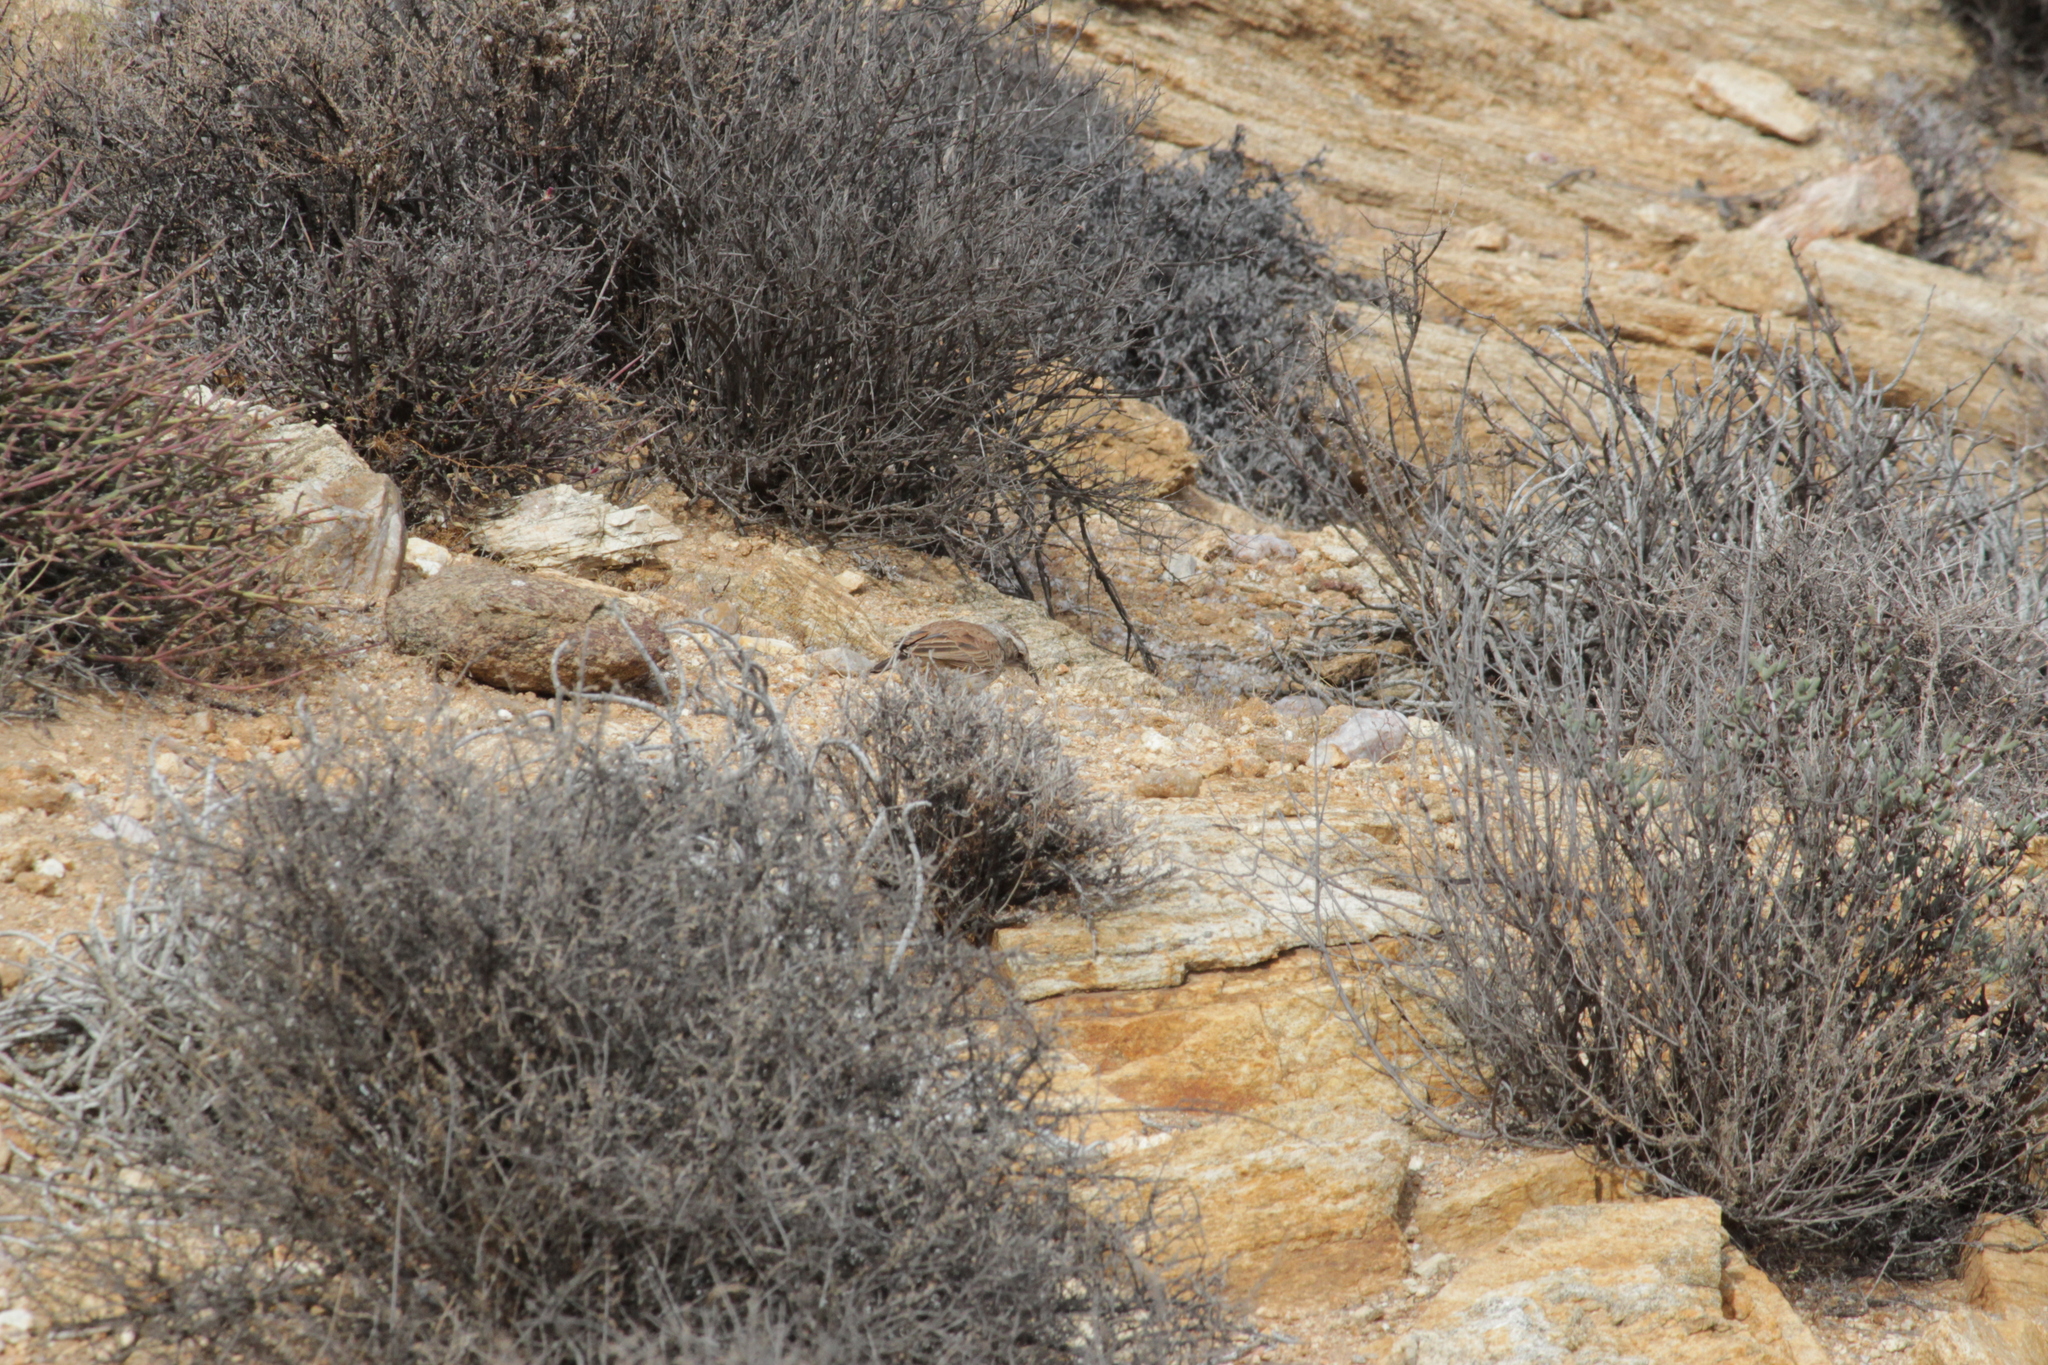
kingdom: Animalia
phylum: Chordata
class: Aves
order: Passeriformes
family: Alaudidae
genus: Certhilauda
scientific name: Certhilauda subcoronata
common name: Karoo long-billed lark
